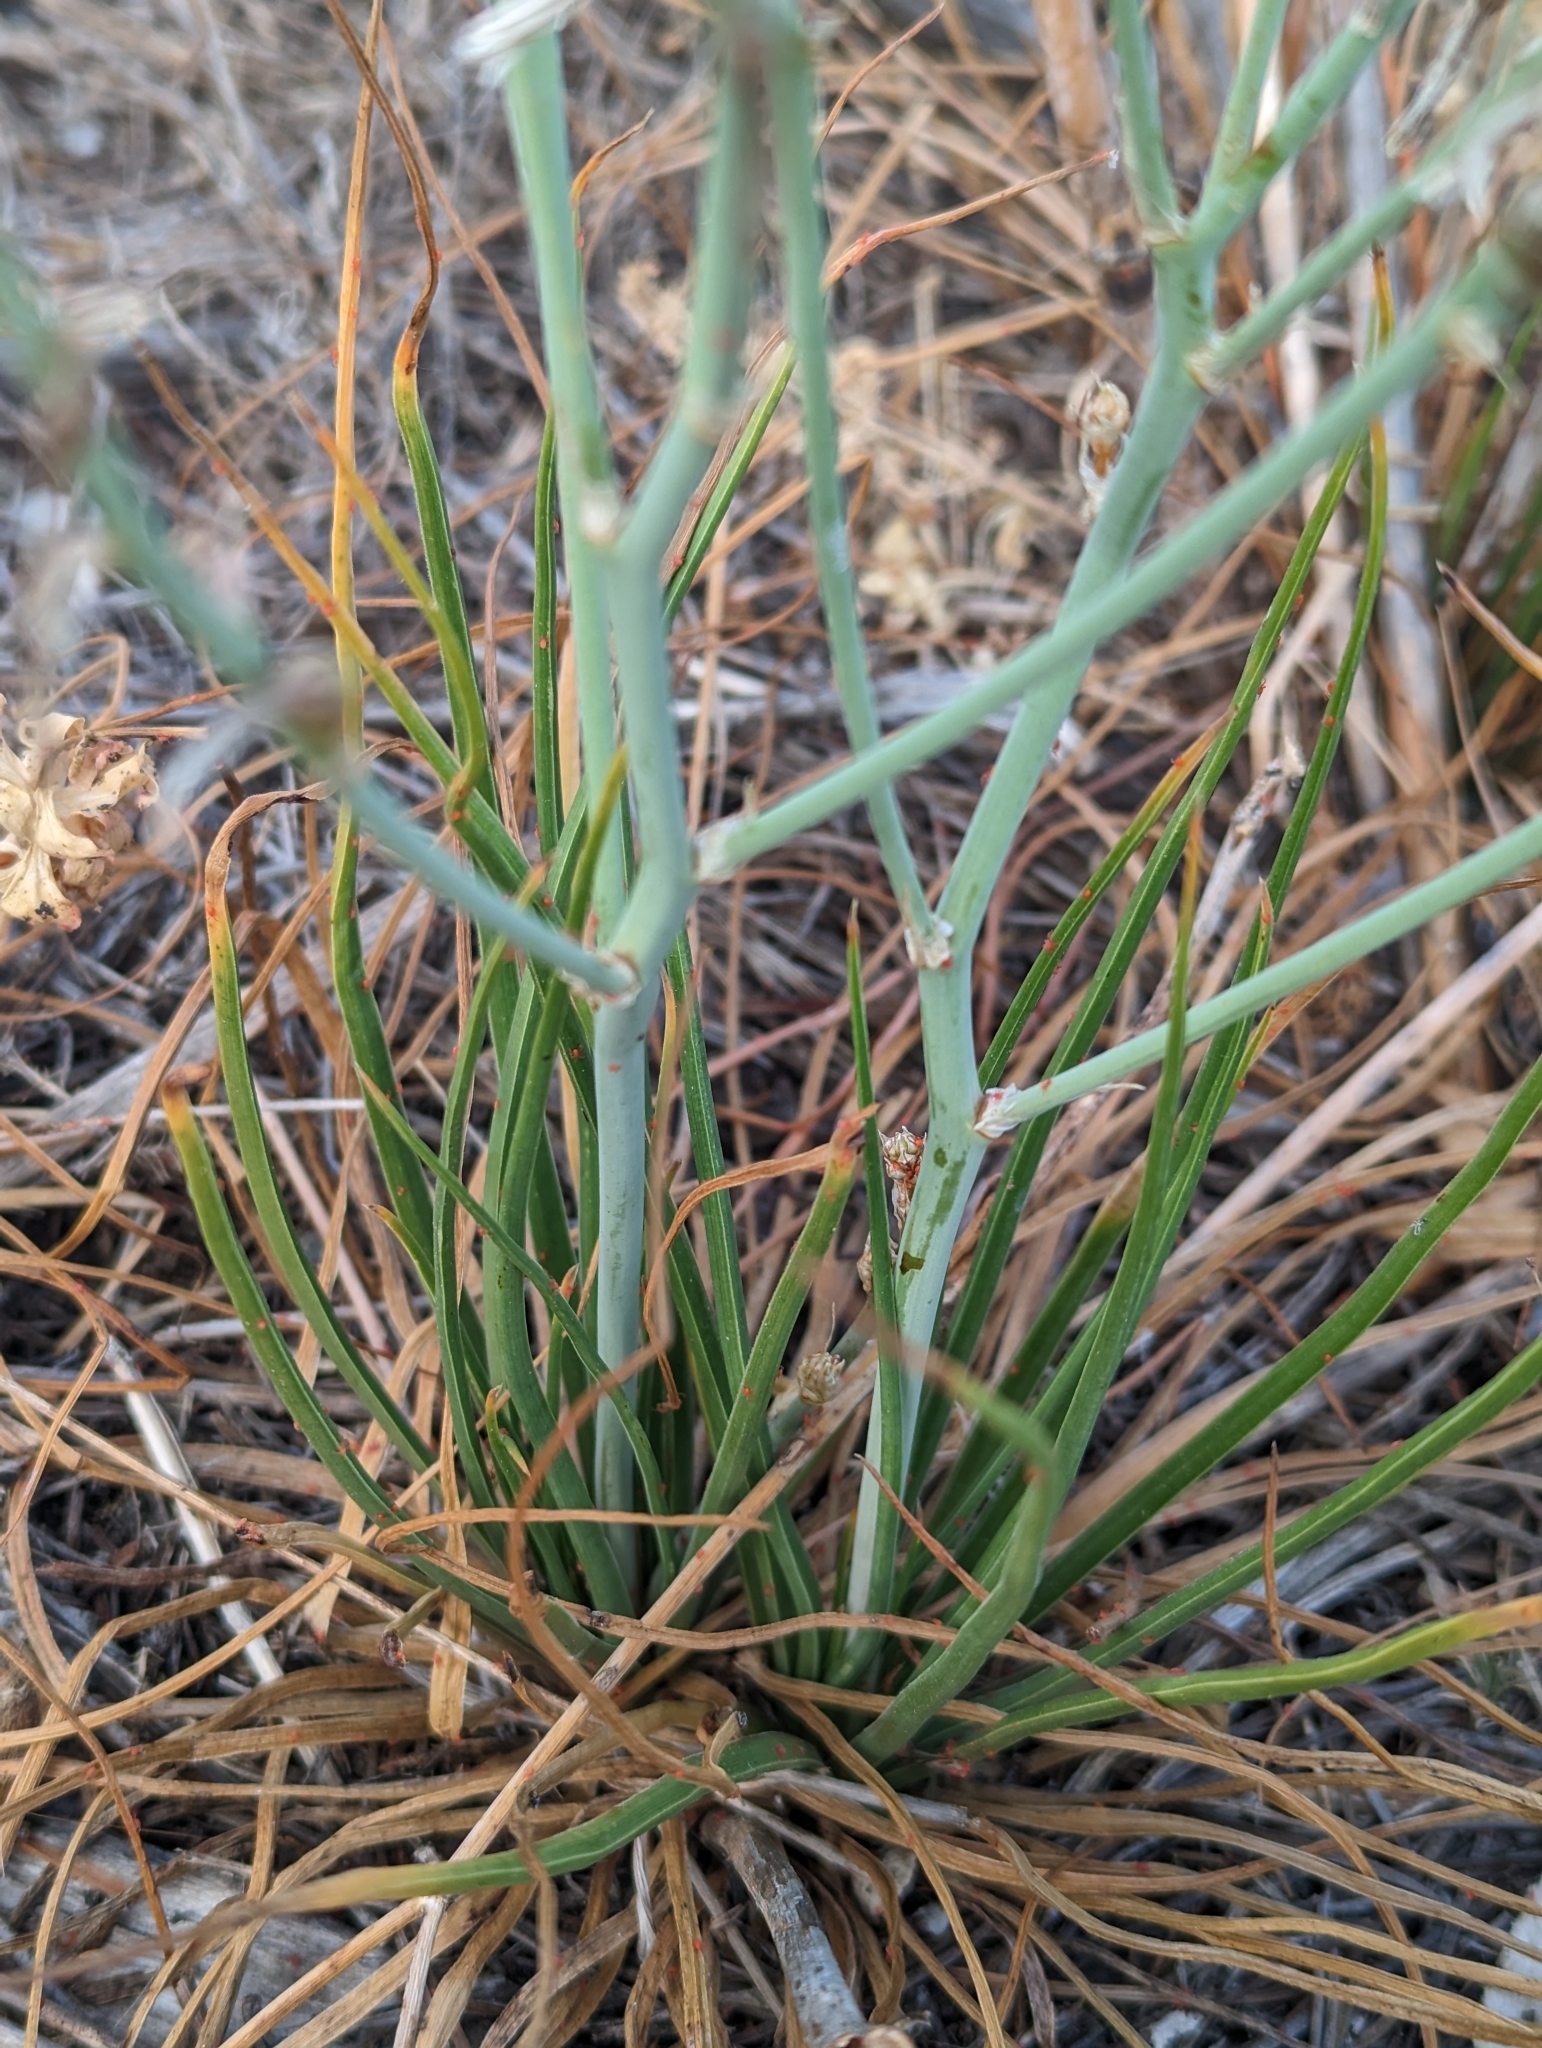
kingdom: Plantae
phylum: Tracheophyta
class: Liliopsida
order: Asparagales
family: Asphodelaceae
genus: Asphodelus
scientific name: Asphodelus fistulosus
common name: Onionweed
